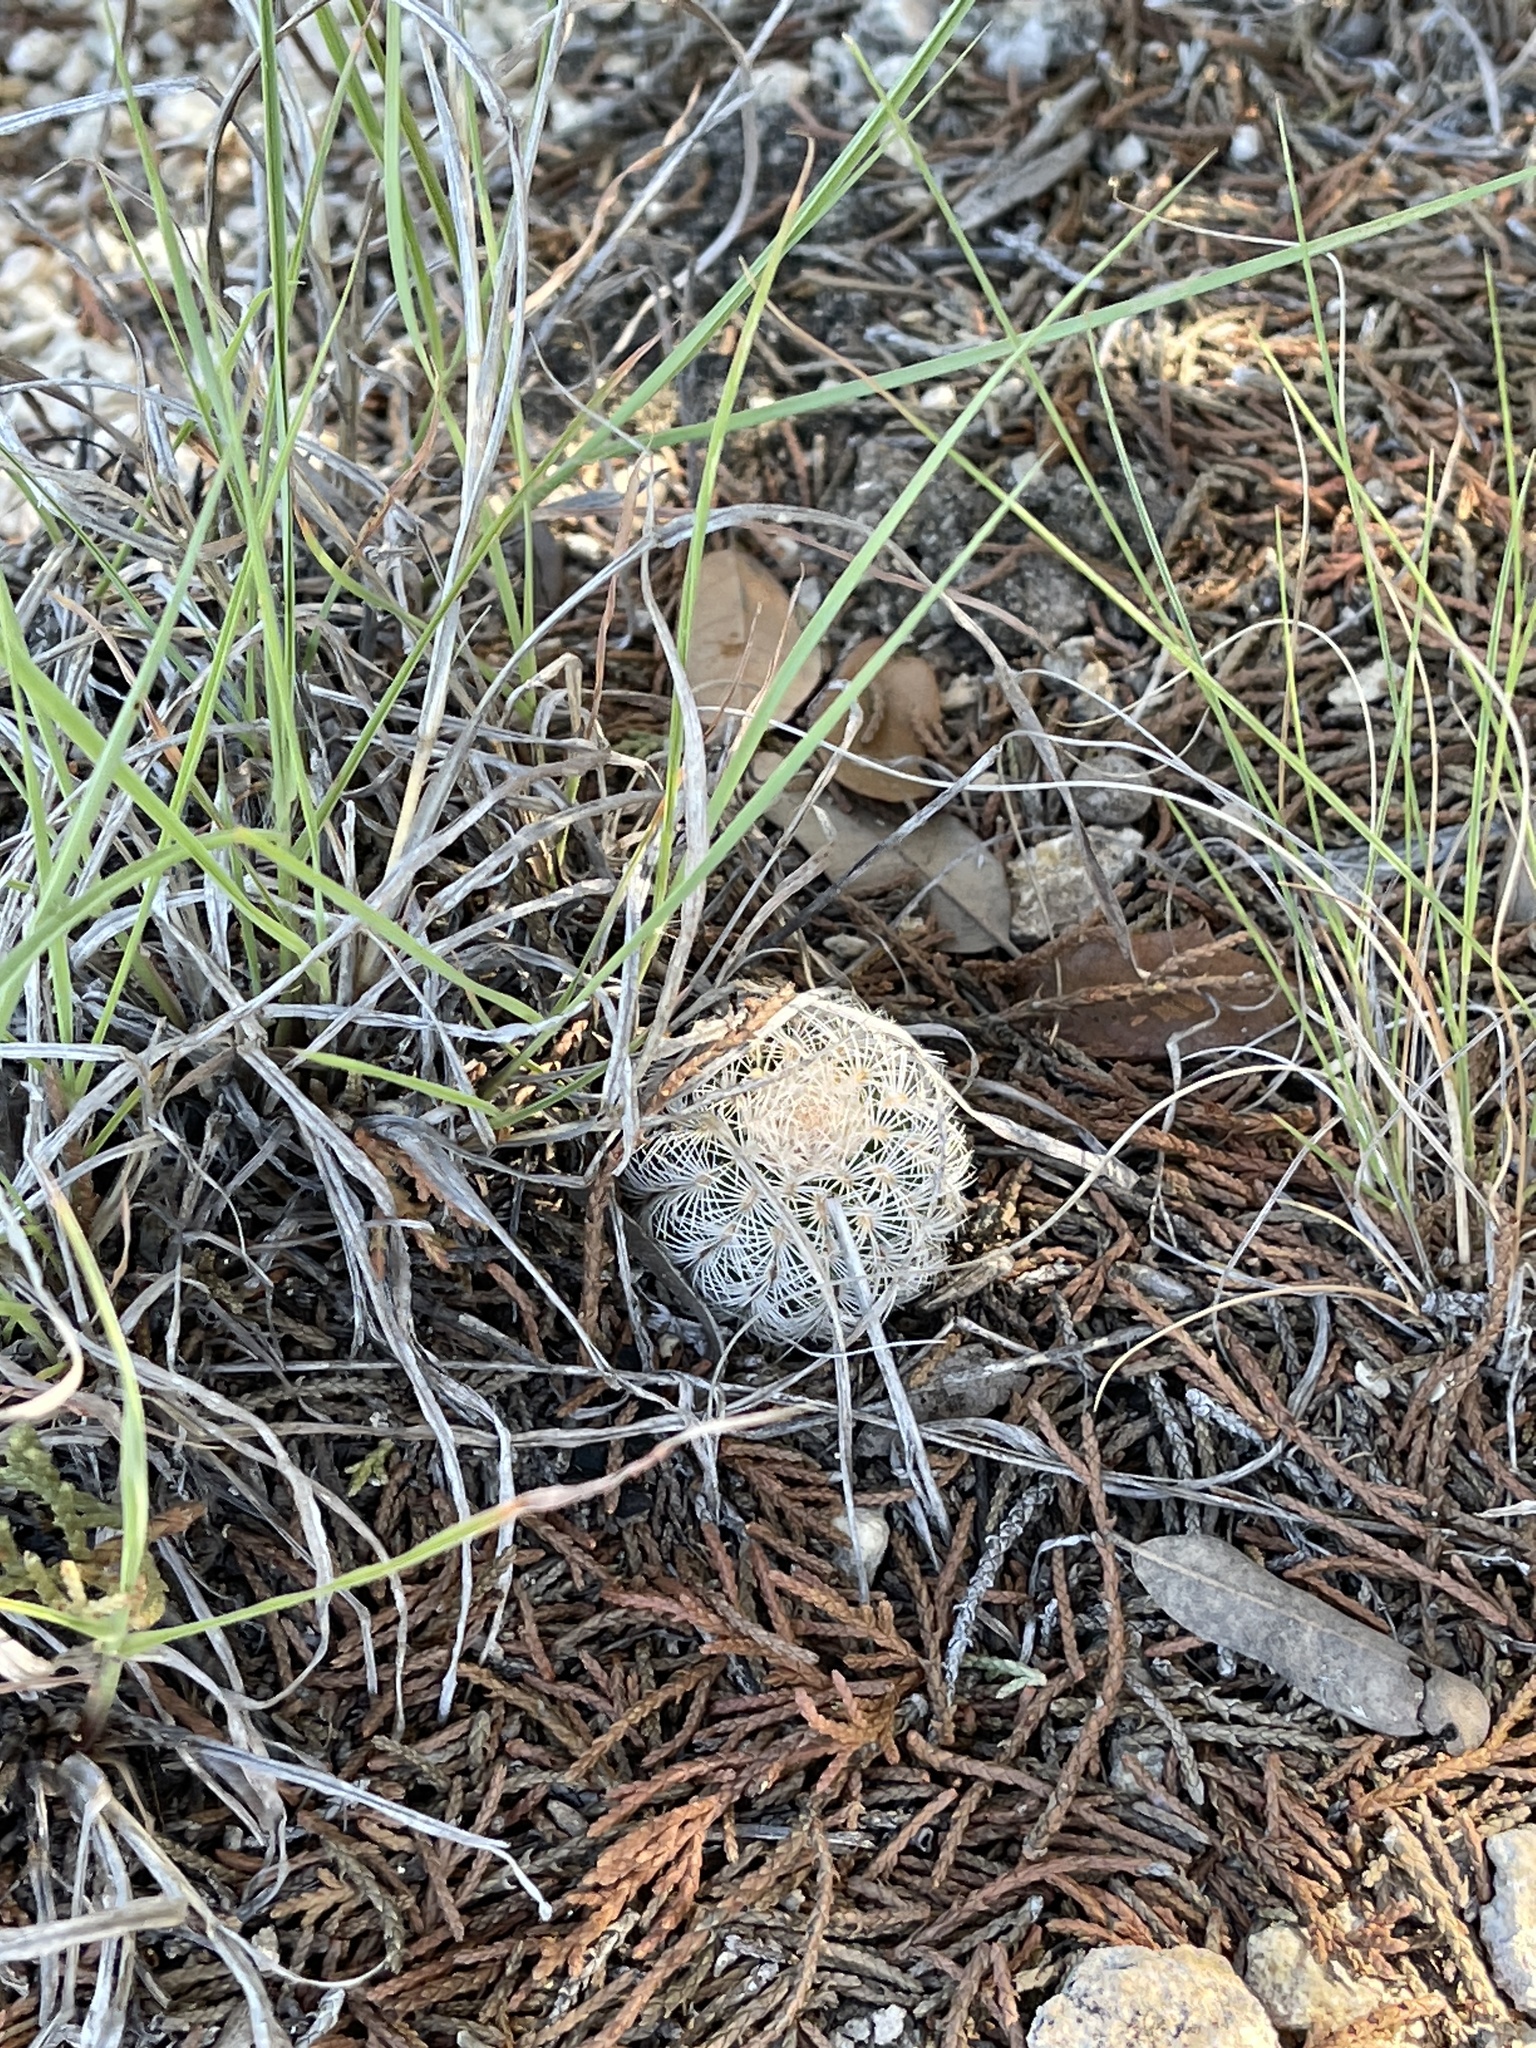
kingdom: Plantae
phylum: Tracheophyta
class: Magnoliopsida
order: Caryophyllales
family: Cactaceae
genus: Echinocereus
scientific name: Echinocereus reichenbachii
